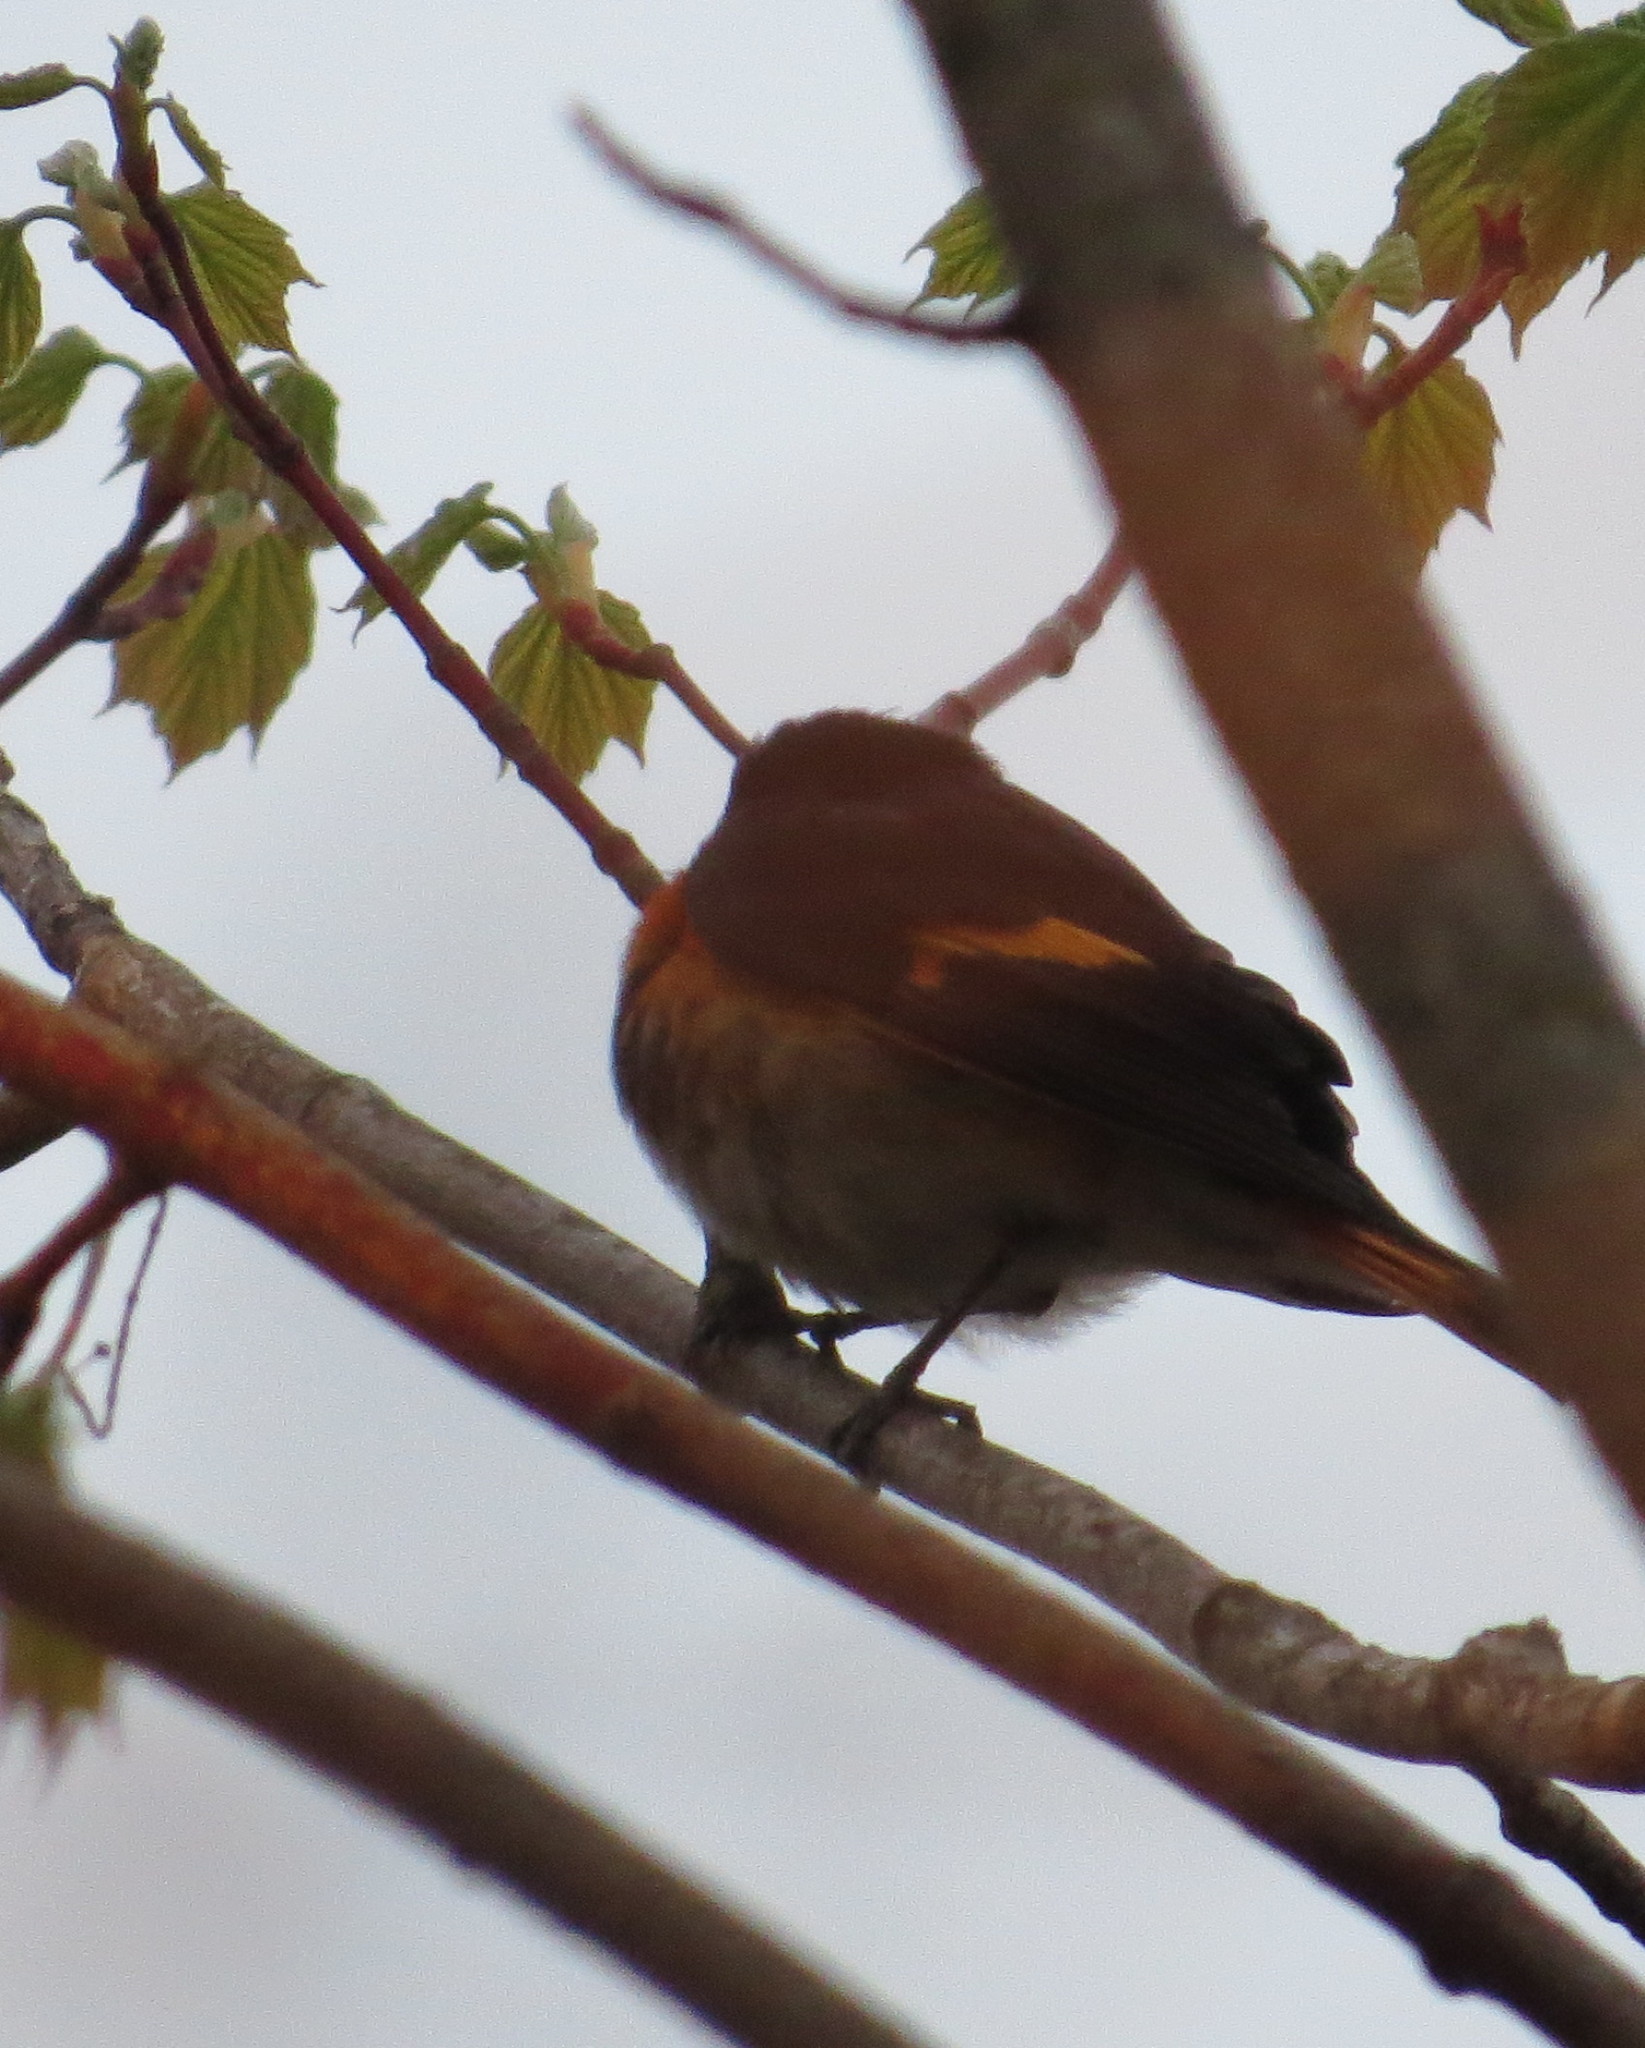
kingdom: Animalia
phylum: Chordata
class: Aves
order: Passeriformes
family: Parulidae
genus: Setophaga
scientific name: Setophaga ruticilla
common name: American redstart
